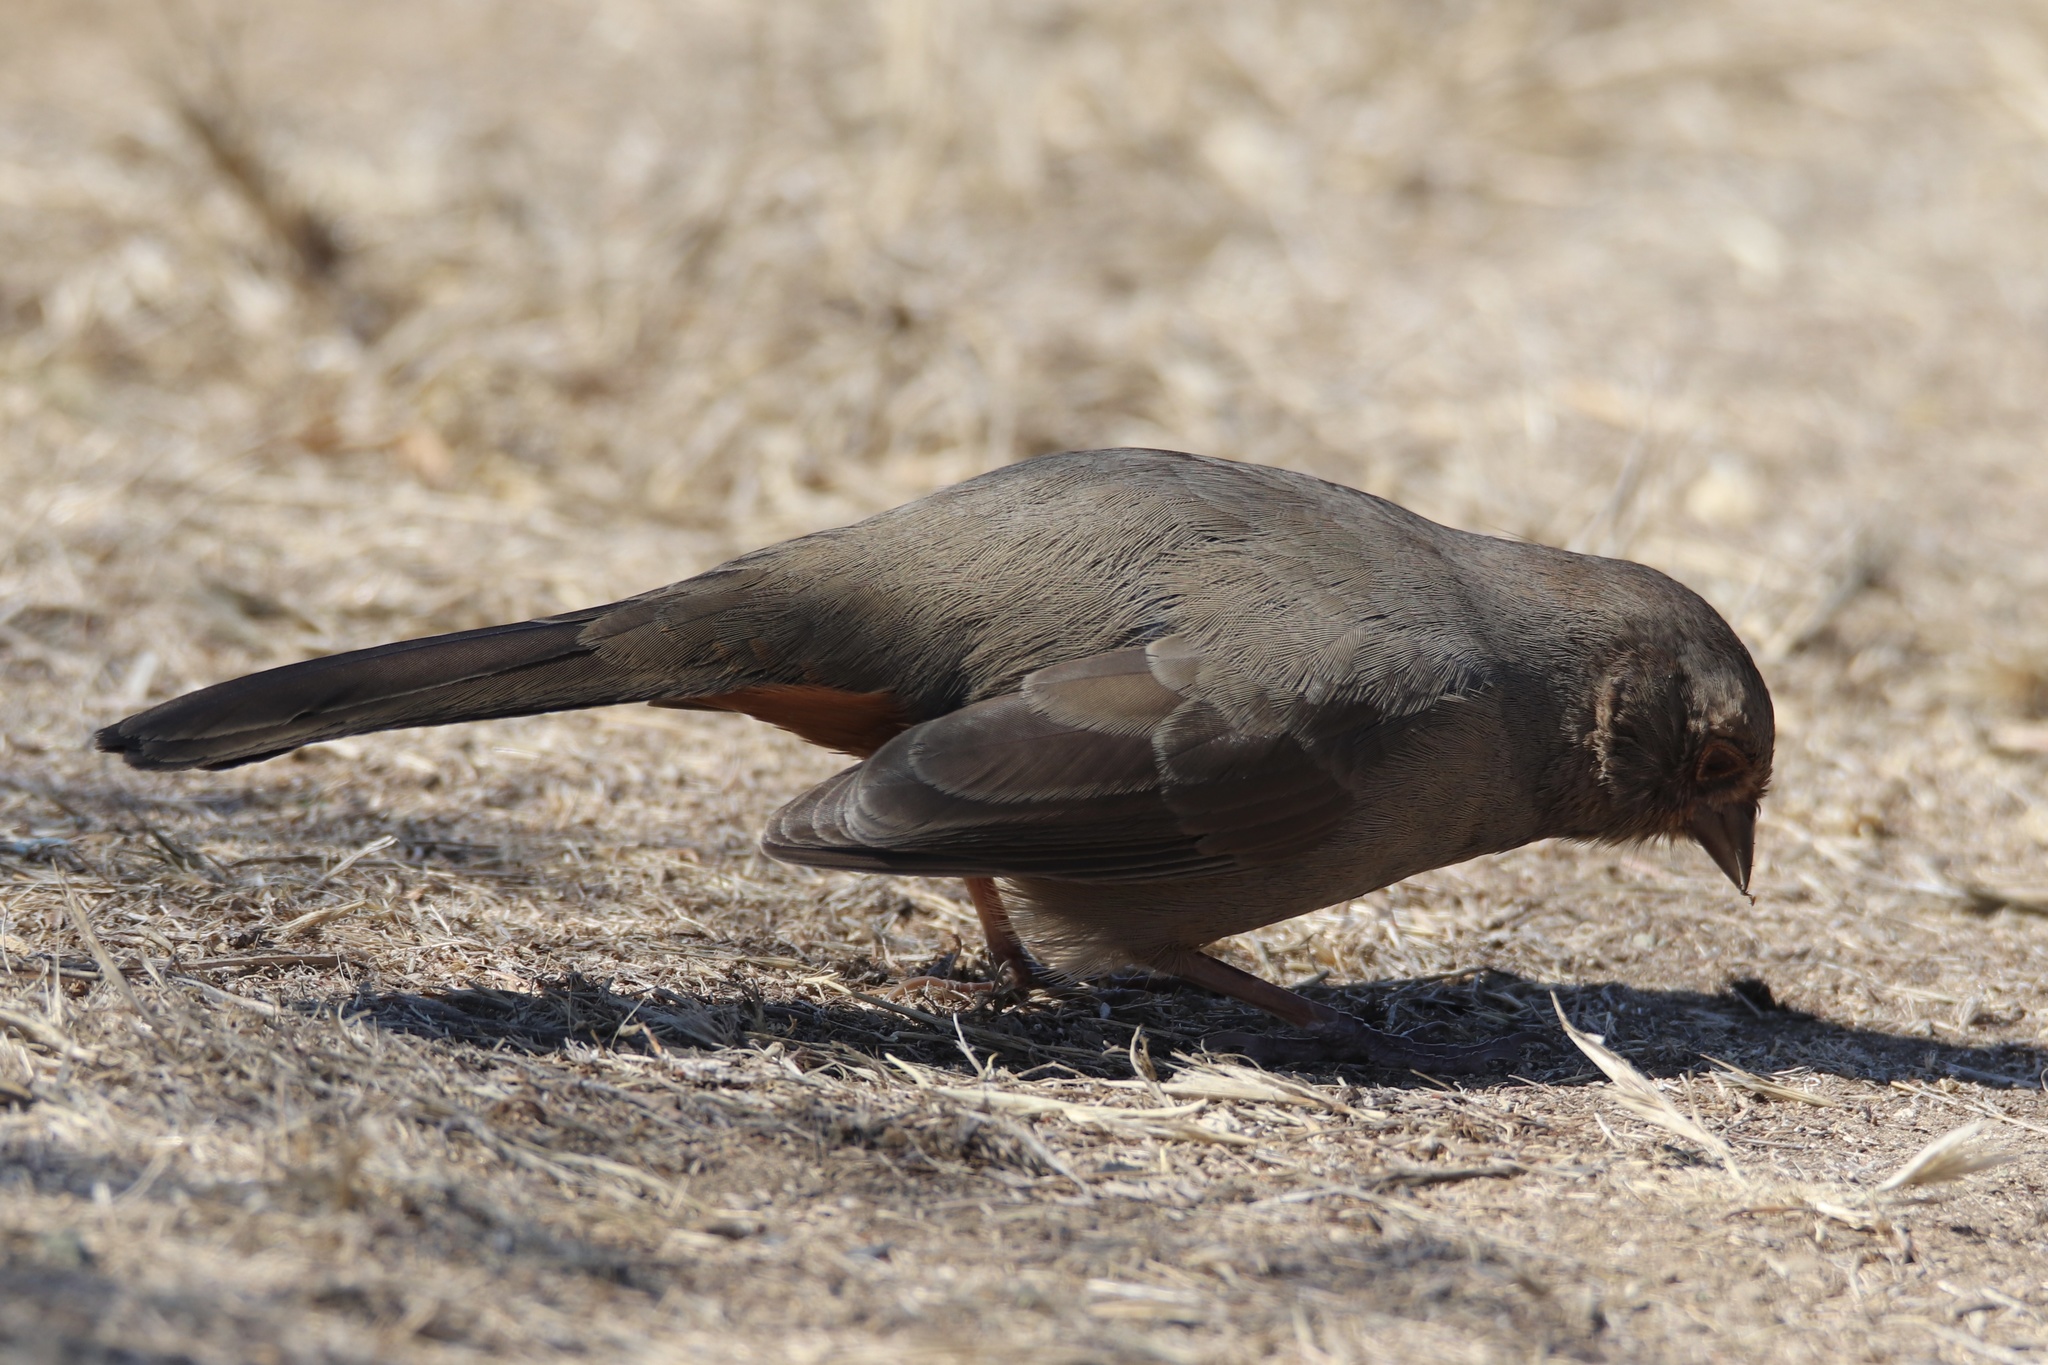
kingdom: Animalia
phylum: Chordata
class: Aves
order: Passeriformes
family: Passerellidae
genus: Melozone
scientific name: Melozone crissalis
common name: California towhee
